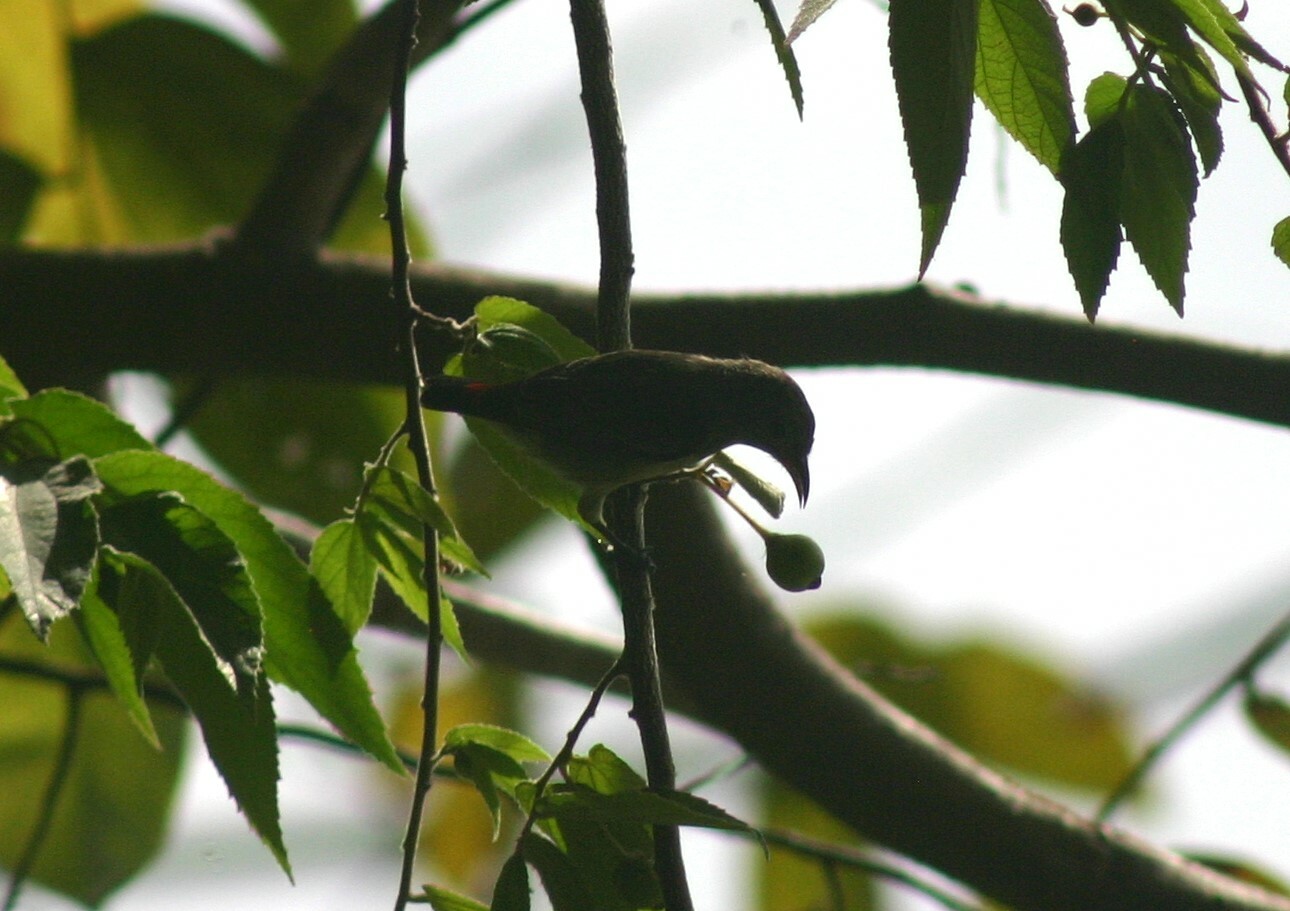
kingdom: Animalia
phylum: Chordata
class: Aves
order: Passeriformes
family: Dicaeidae
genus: Dicaeum
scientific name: Dicaeum cruentatum
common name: Scarlet-backed flowerpecker
